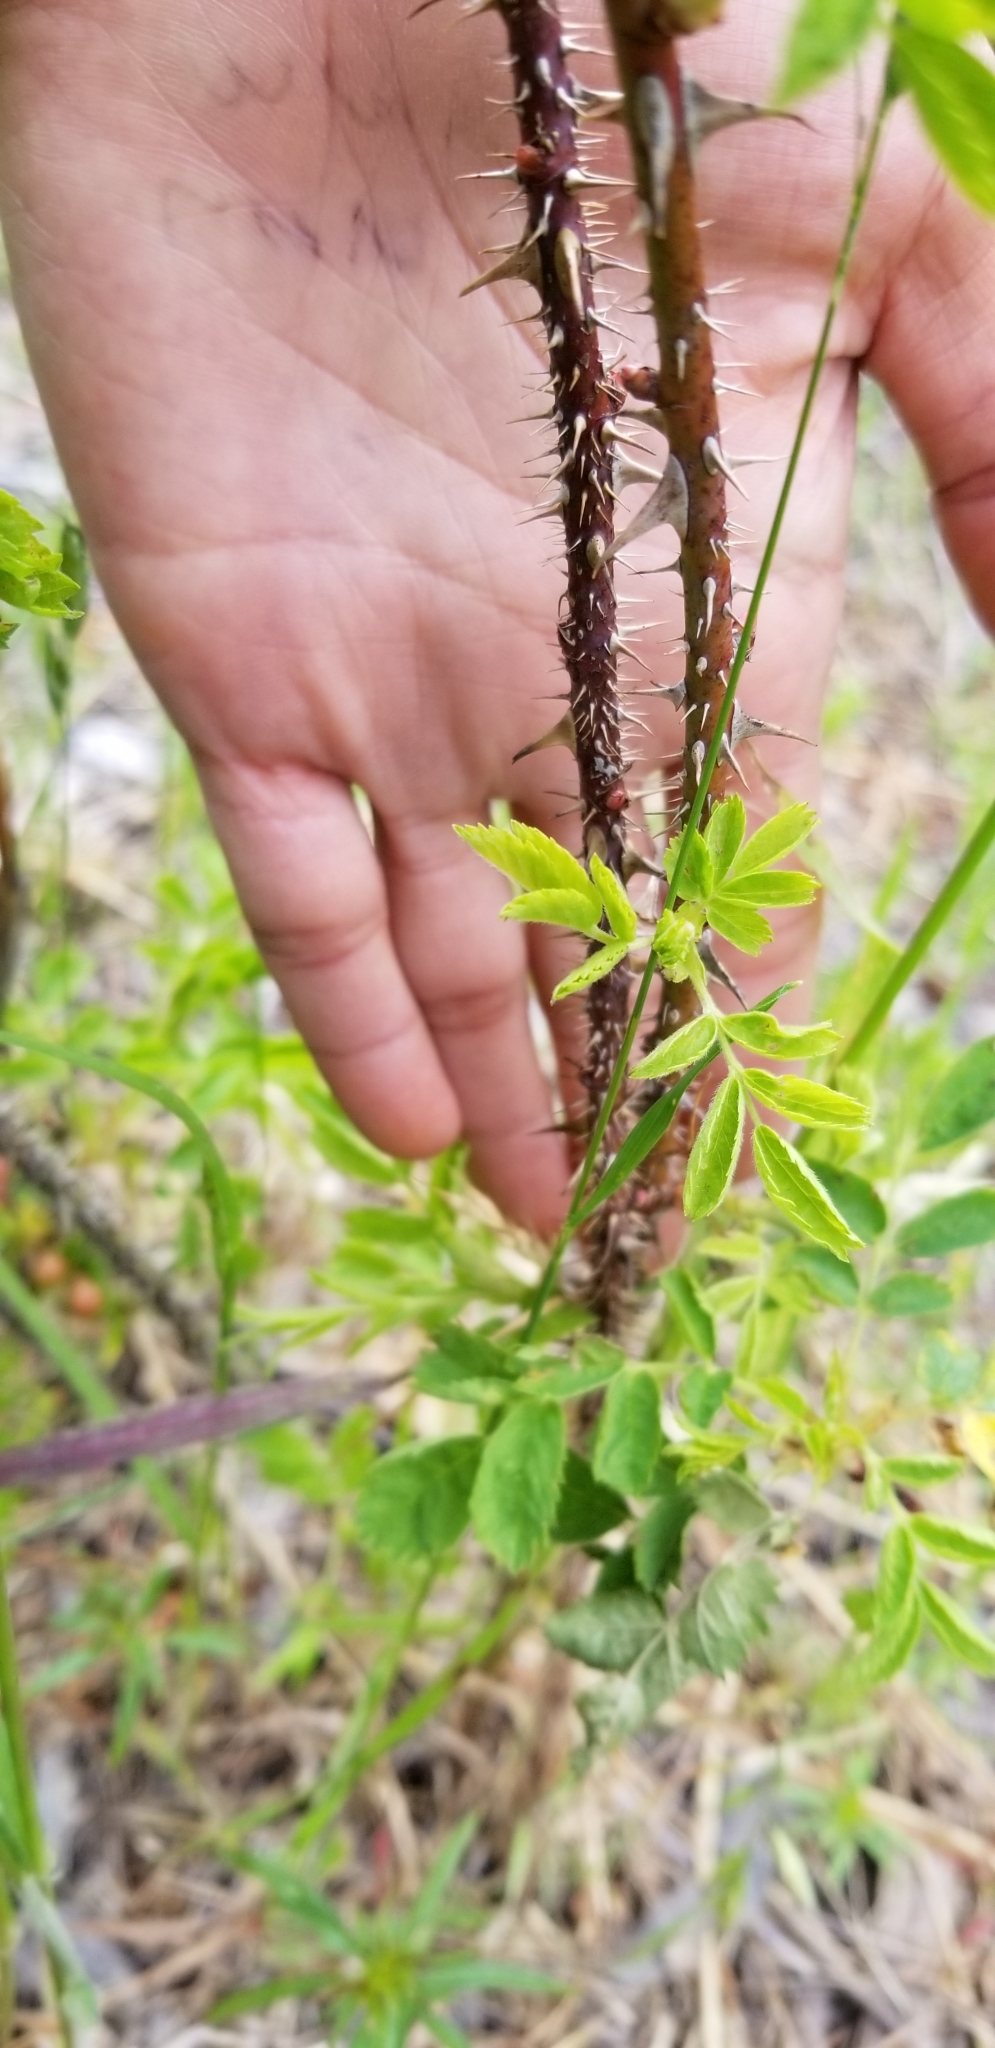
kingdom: Plantae
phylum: Tracheophyta
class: Magnoliopsida
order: Rosales
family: Rosaceae
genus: Rosa
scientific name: Rosa californica
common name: California rose
